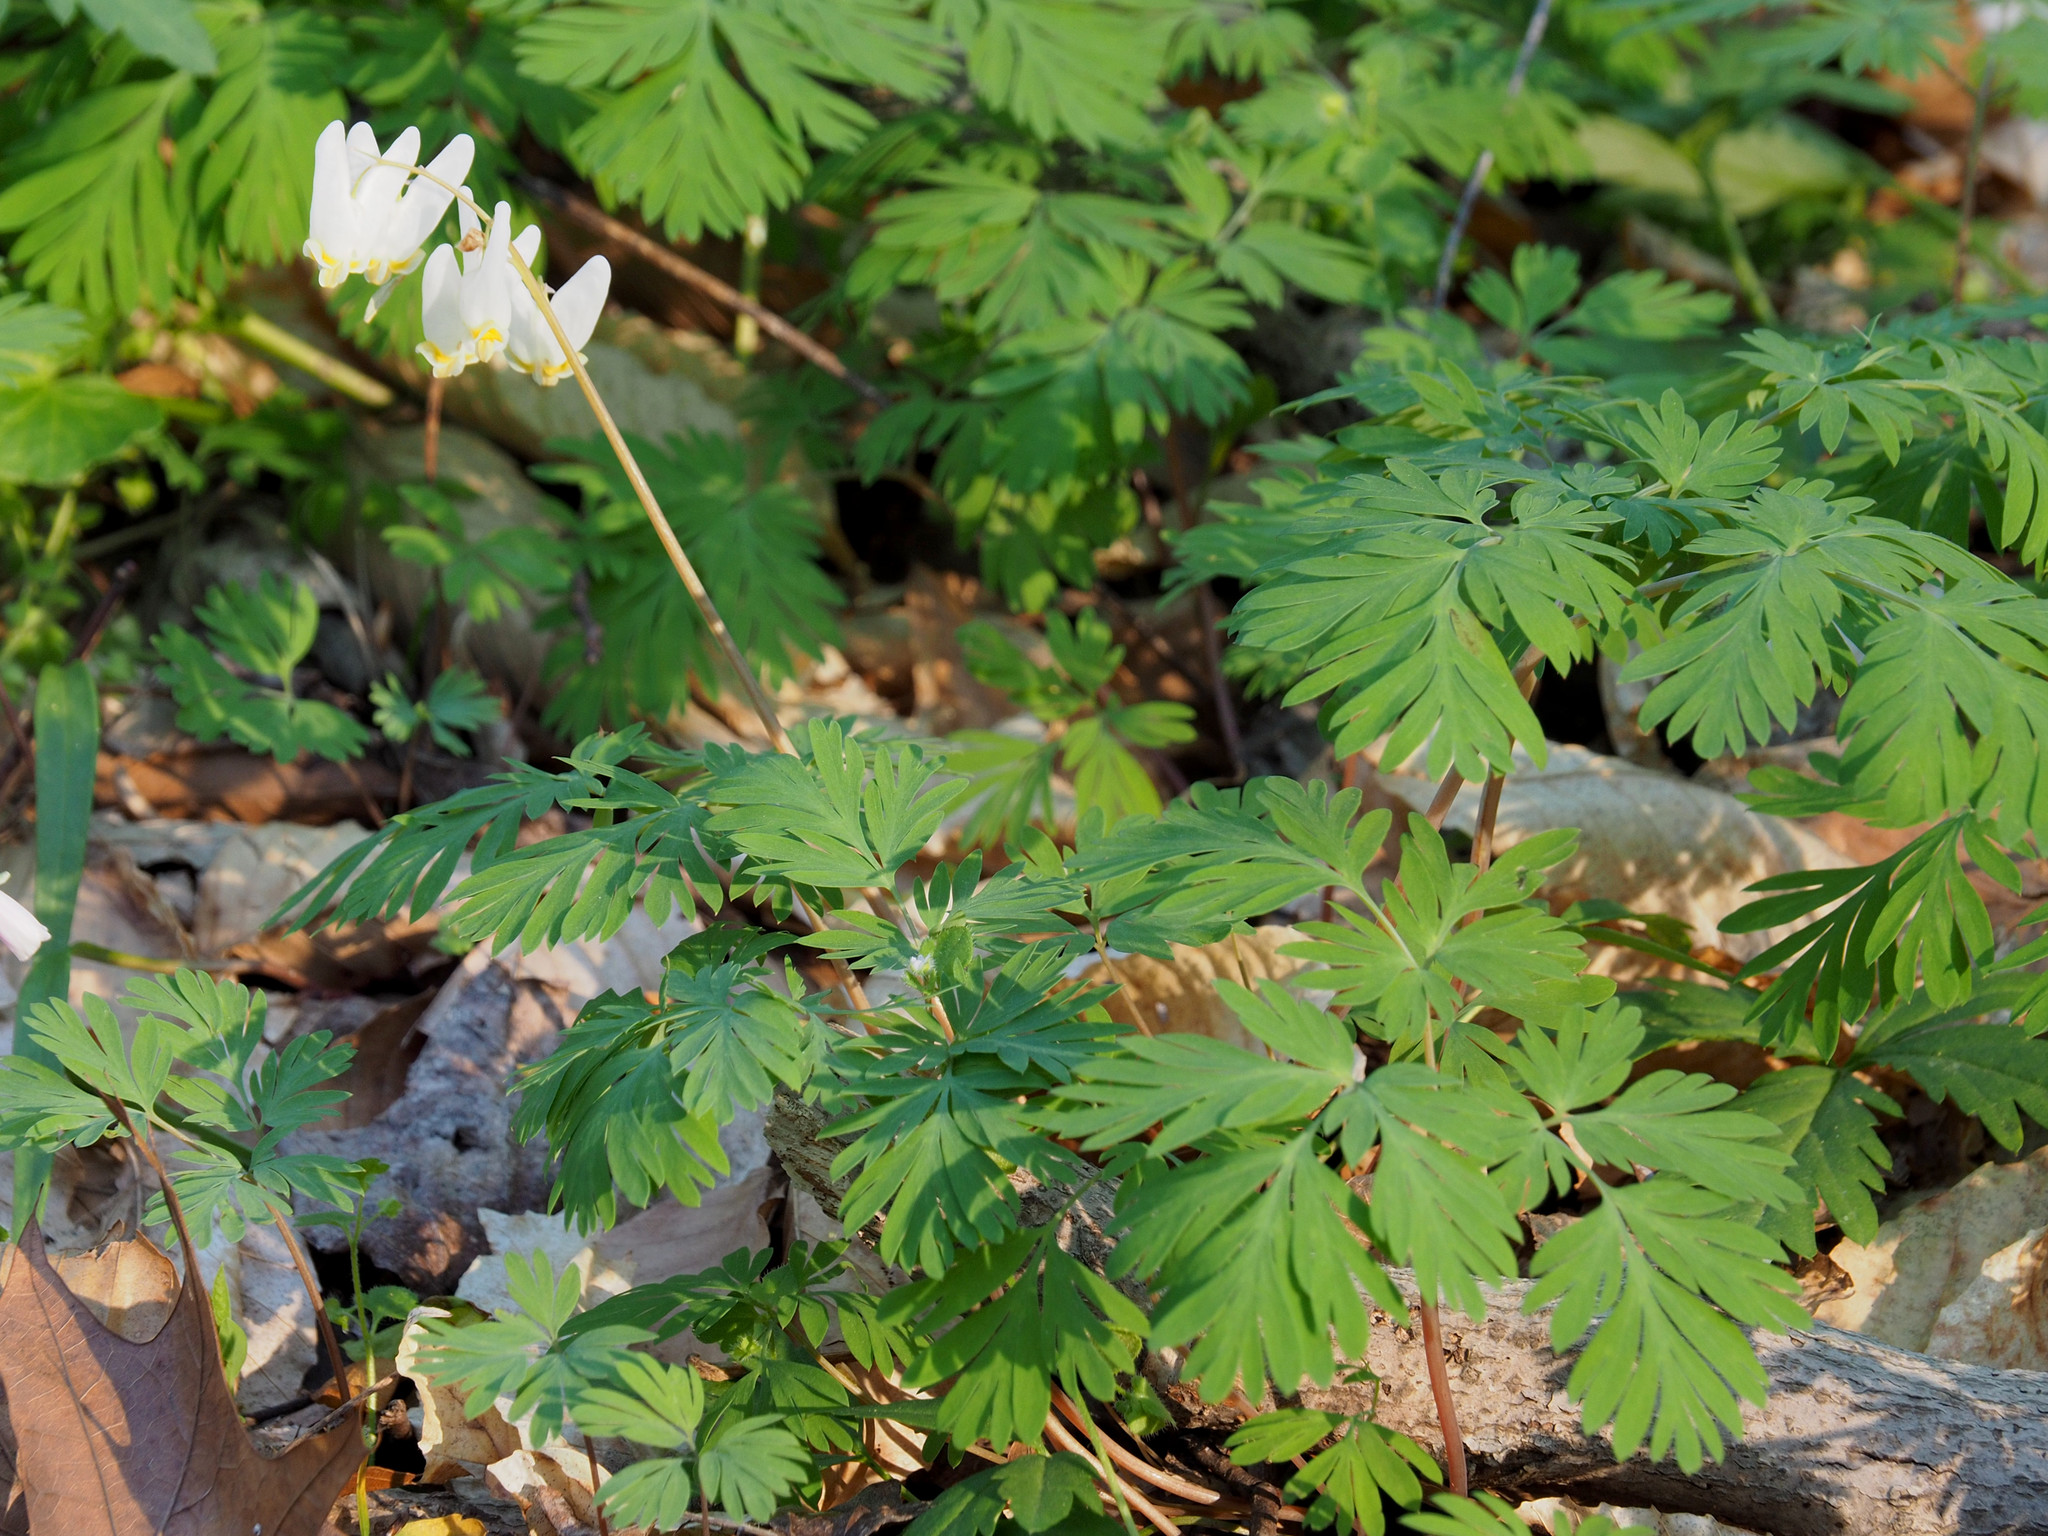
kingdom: Plantae
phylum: Tracheophyta
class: Magnoliopsida
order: Ranunculales
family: Papaveraceae
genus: Dicentra
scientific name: Dicentra cucullaria
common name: Dutchman's breeches
